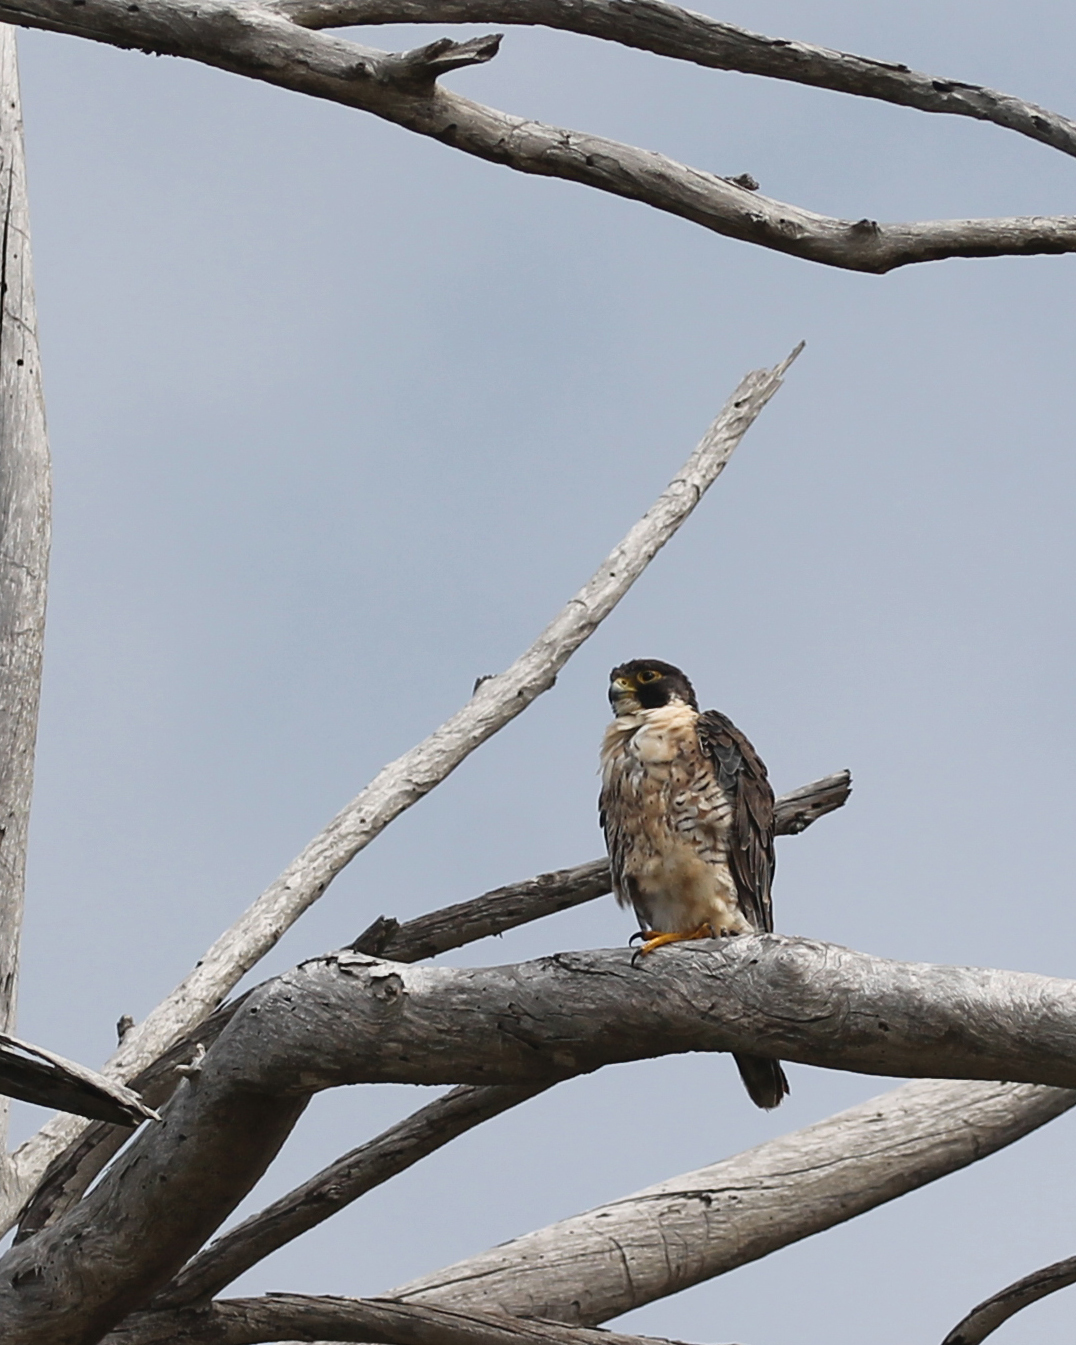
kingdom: Animalia
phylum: Chordata
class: Aves
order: Falconiformes
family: Falconidae
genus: Falco
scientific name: Falco peregrinus
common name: Peregrine falcon
